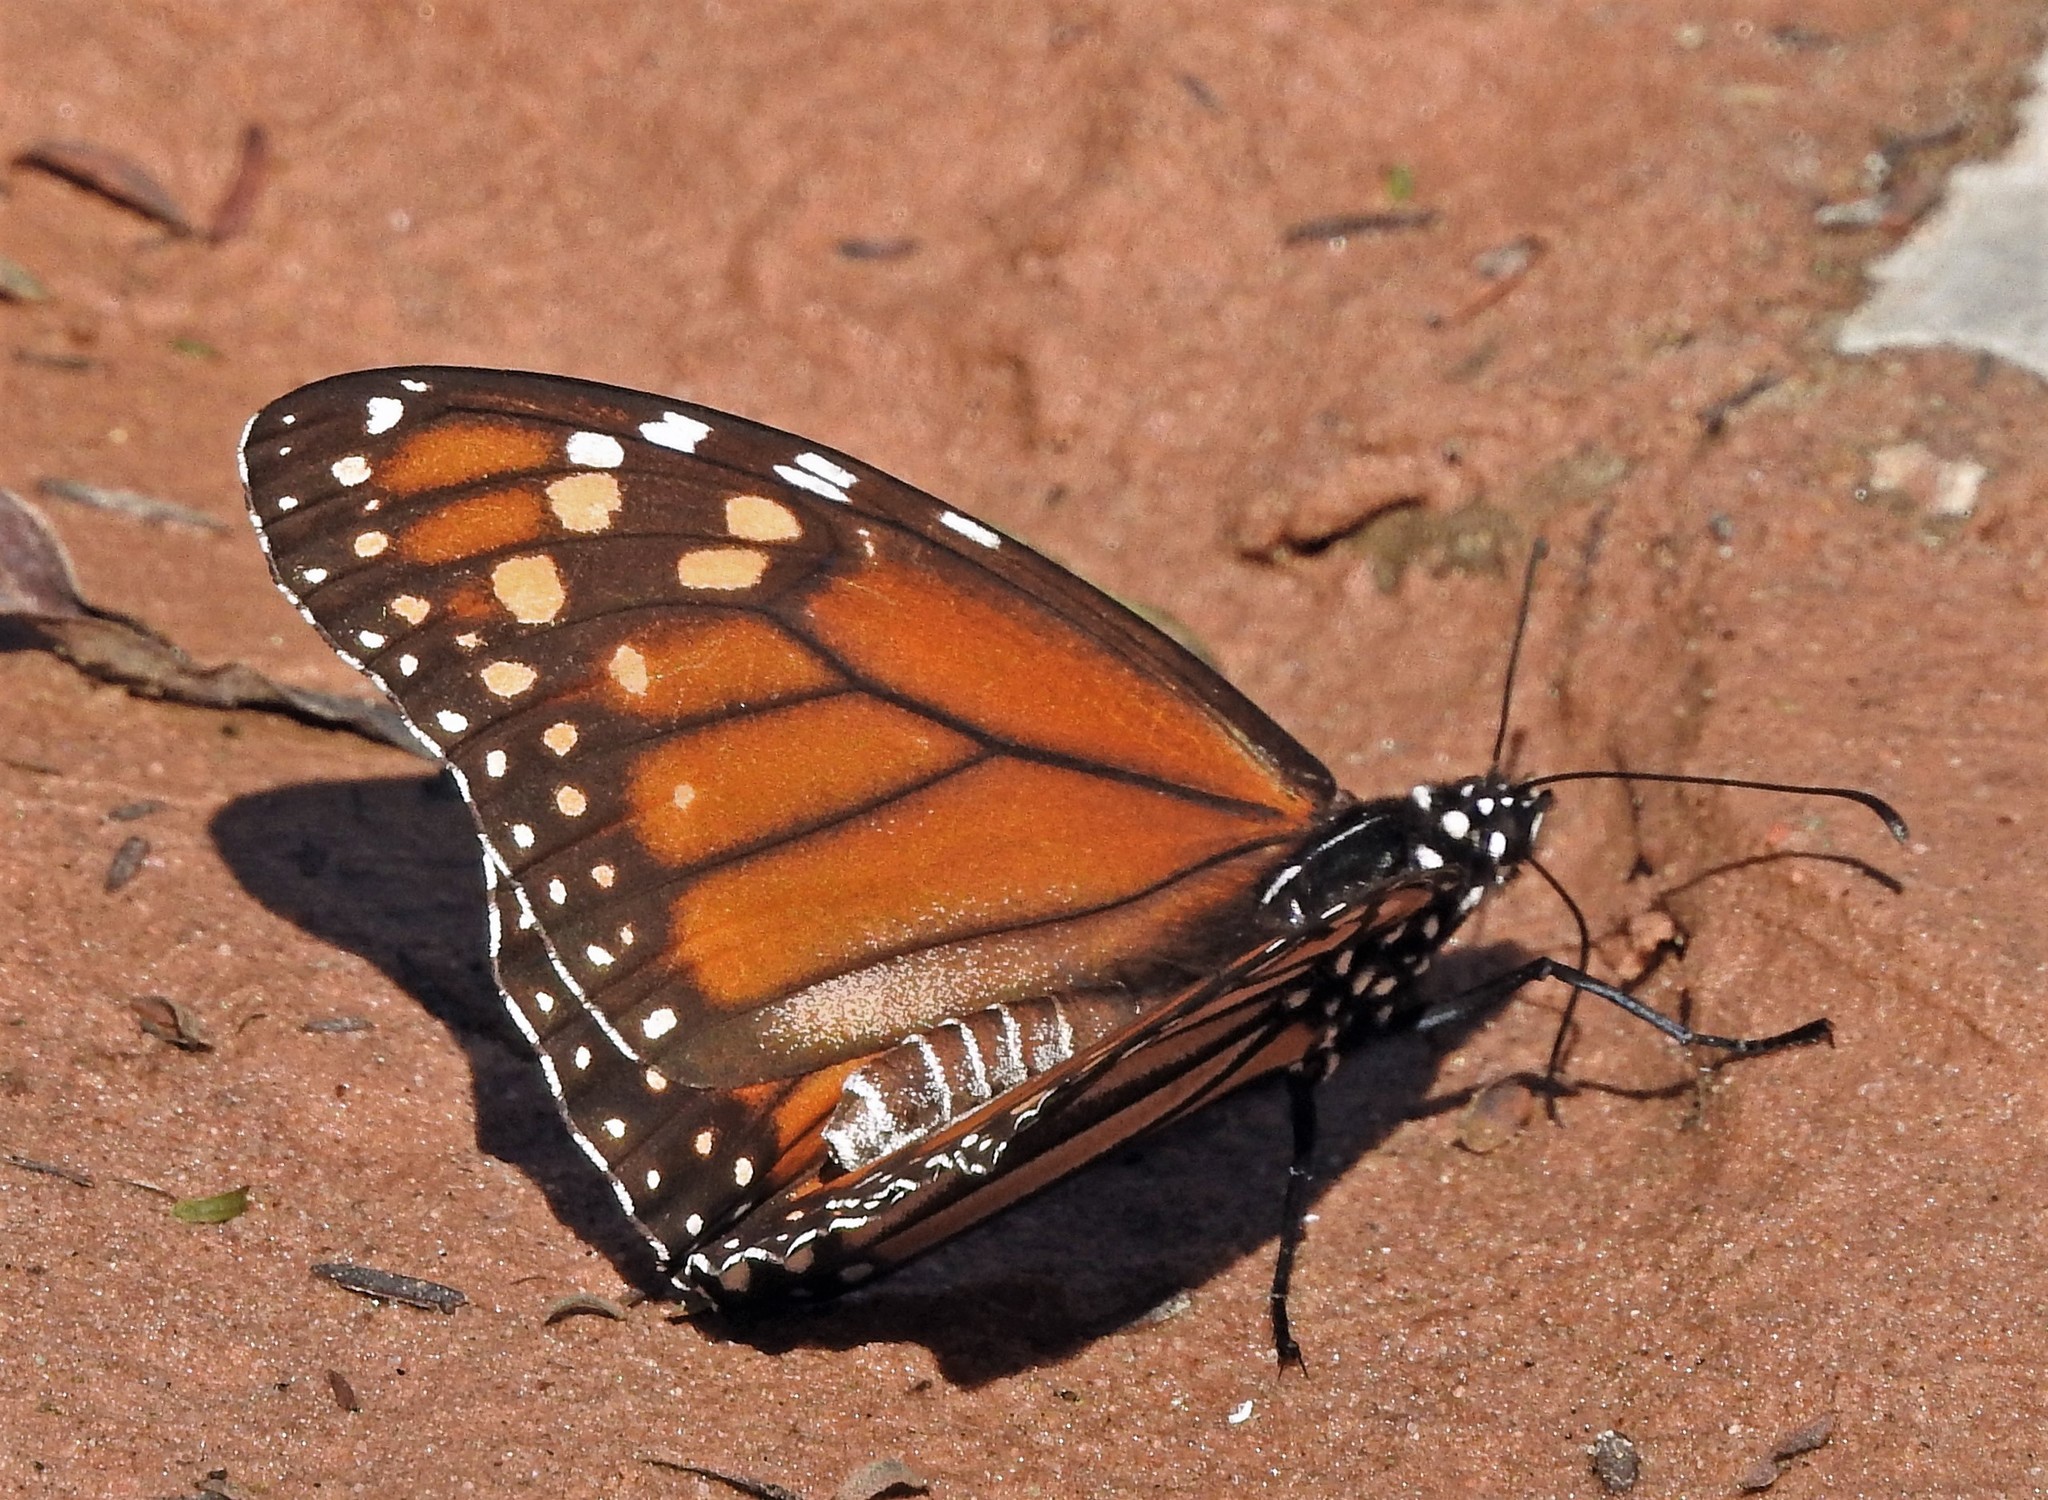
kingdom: Animalia
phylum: Arthropoda
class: Insecta
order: Lepidoptera
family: Nymphalidae
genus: Danaus
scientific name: Danaus erippus
